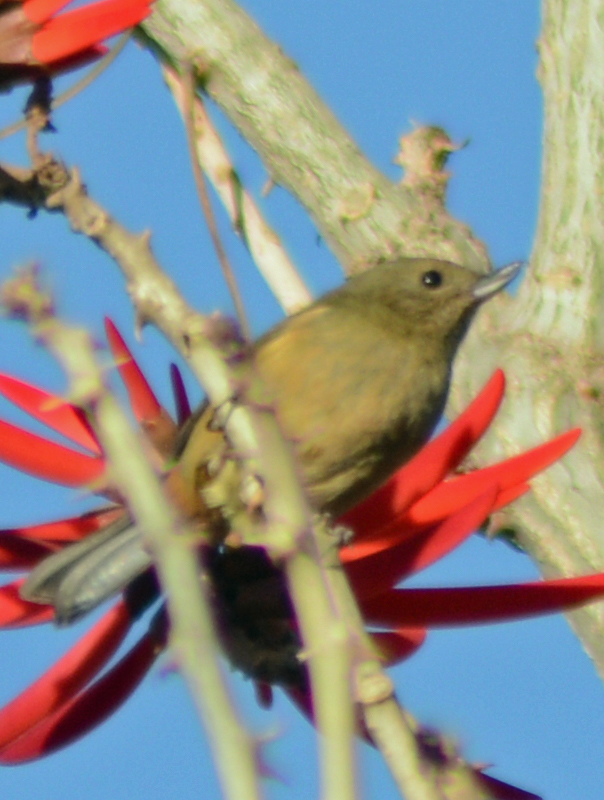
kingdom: Animalia
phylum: Chordata
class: Aves
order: Passeriformes
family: Thraupidae
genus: Diglossa
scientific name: Diglossa baritula
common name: Cinnamon-bellied flowerpiercer
